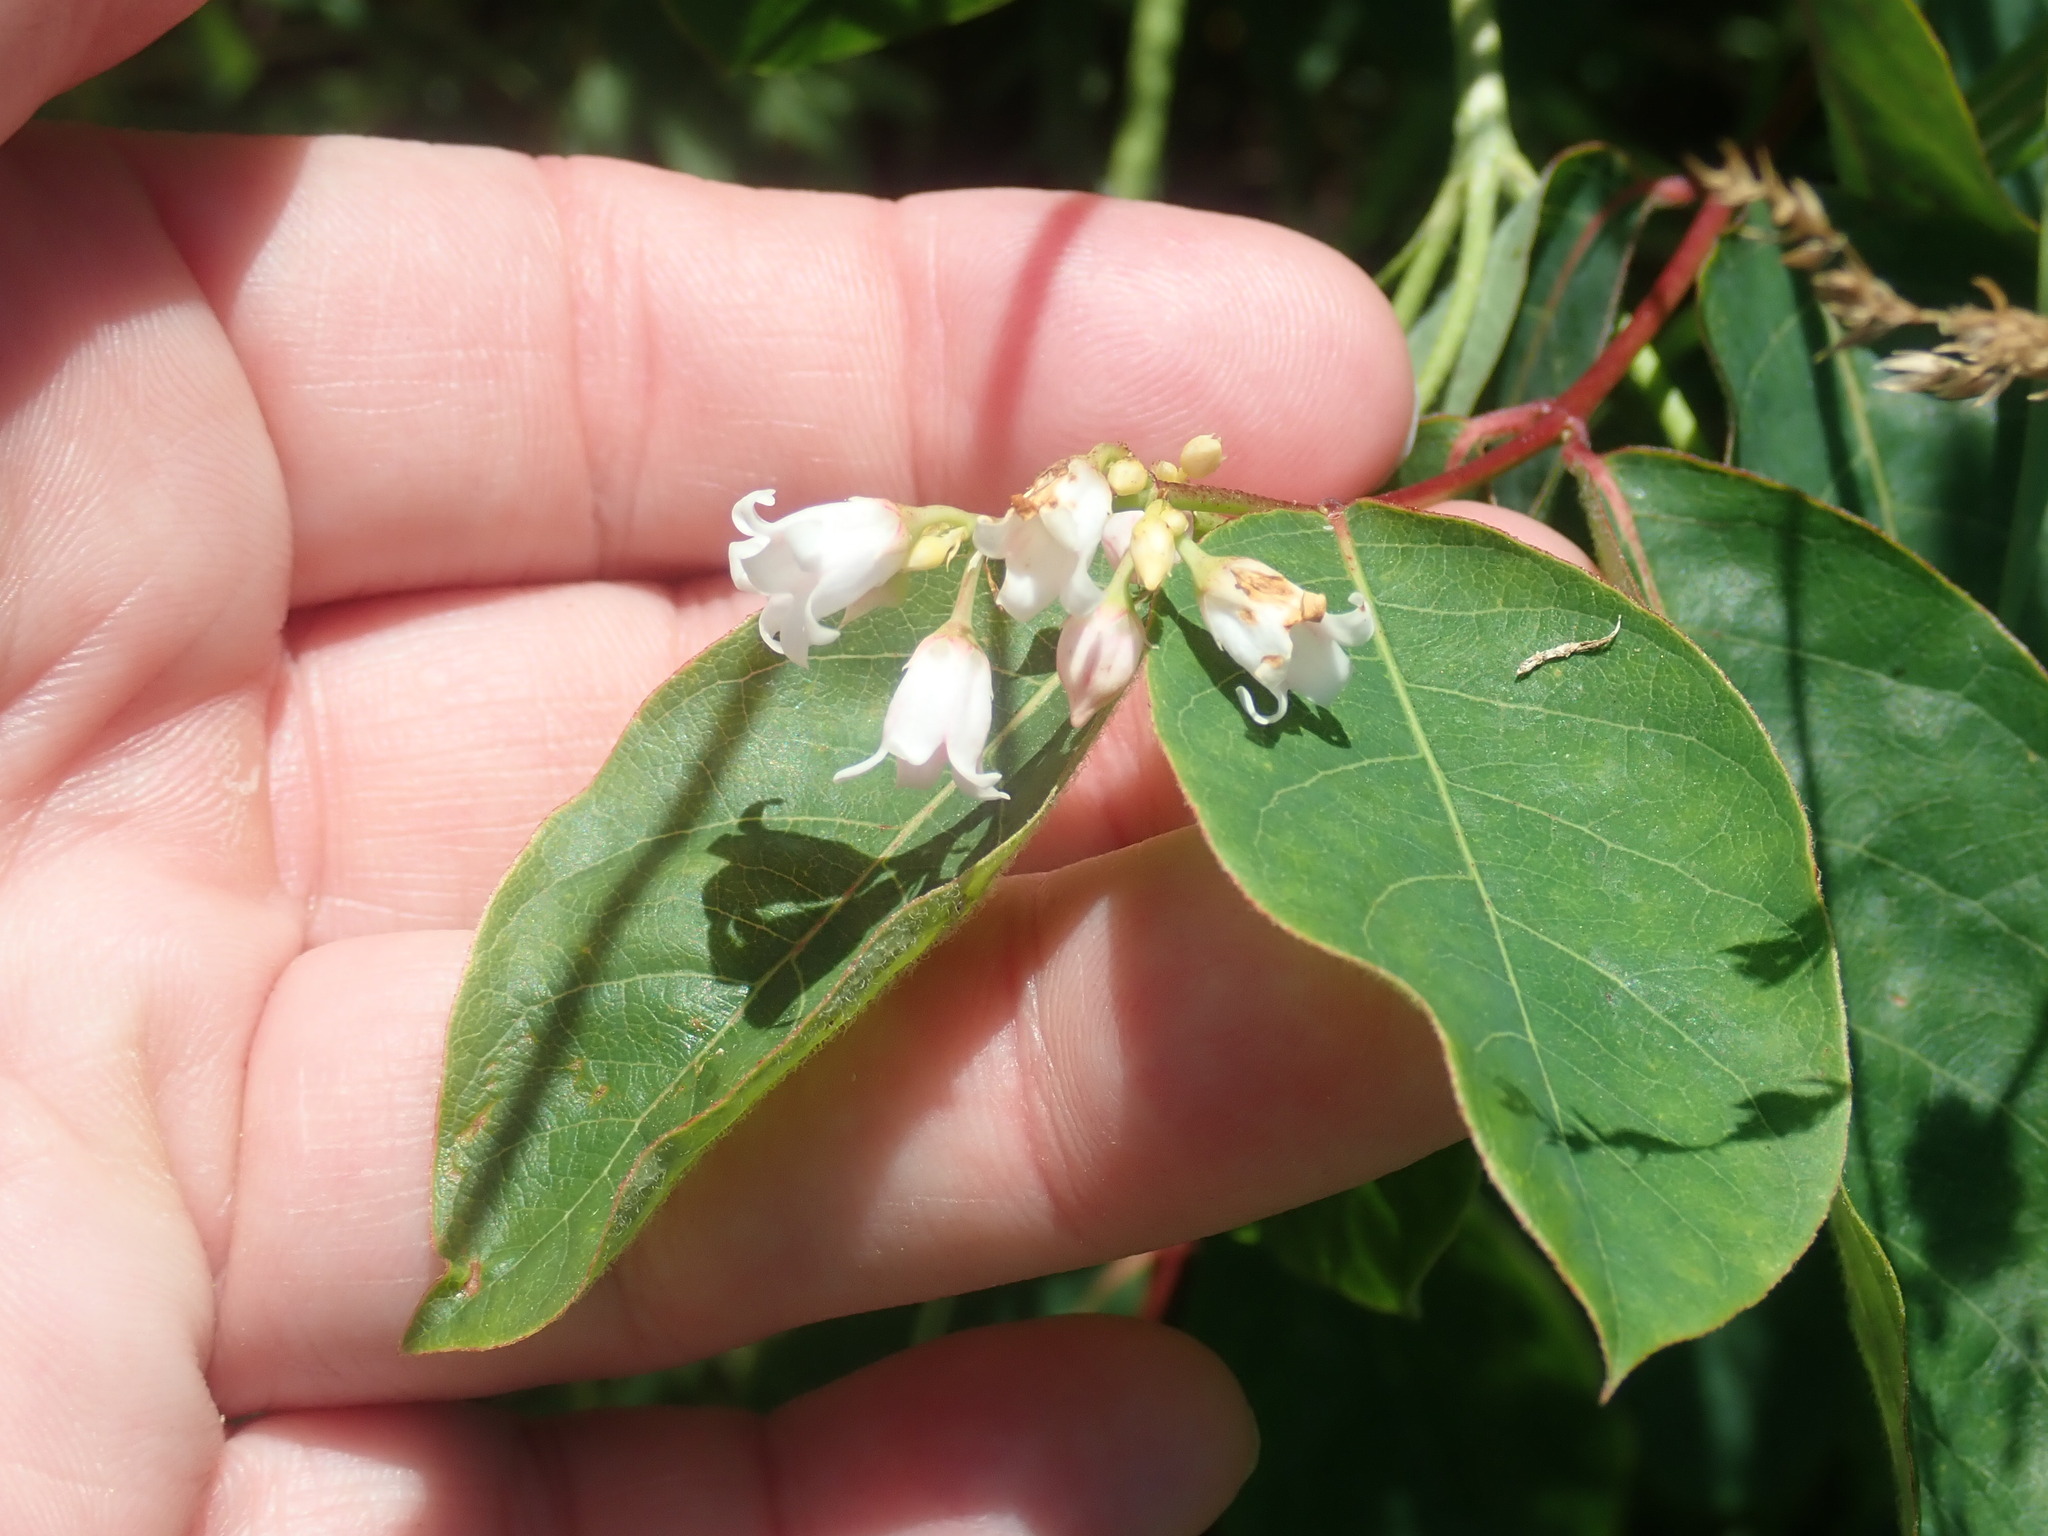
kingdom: Plantae
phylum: Tracheophyta
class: Magnoliopsida
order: Gentianales
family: Apocynaceae
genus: Apocynum
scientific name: Apocynum androsaemifolium
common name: Spreading dogbane
